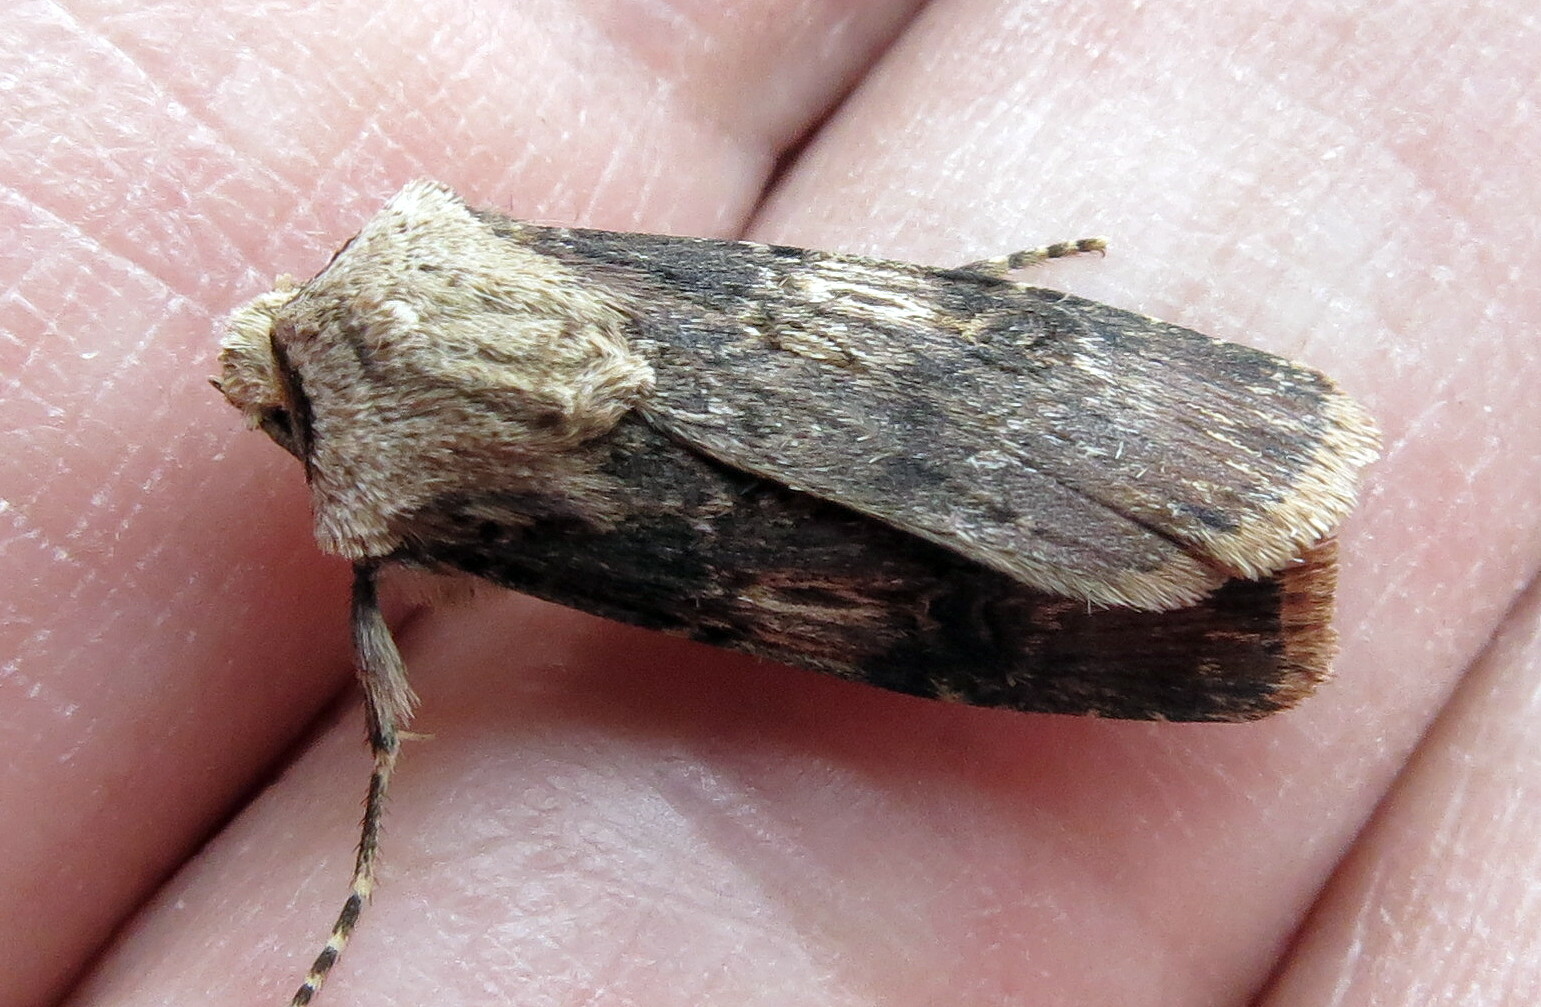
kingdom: Animalia
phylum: Arthropoda
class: Insecta
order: Lepidoptera
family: Noctuidae
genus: Agrotis
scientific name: Agrotis puta
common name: Shuttle-shaped dart
